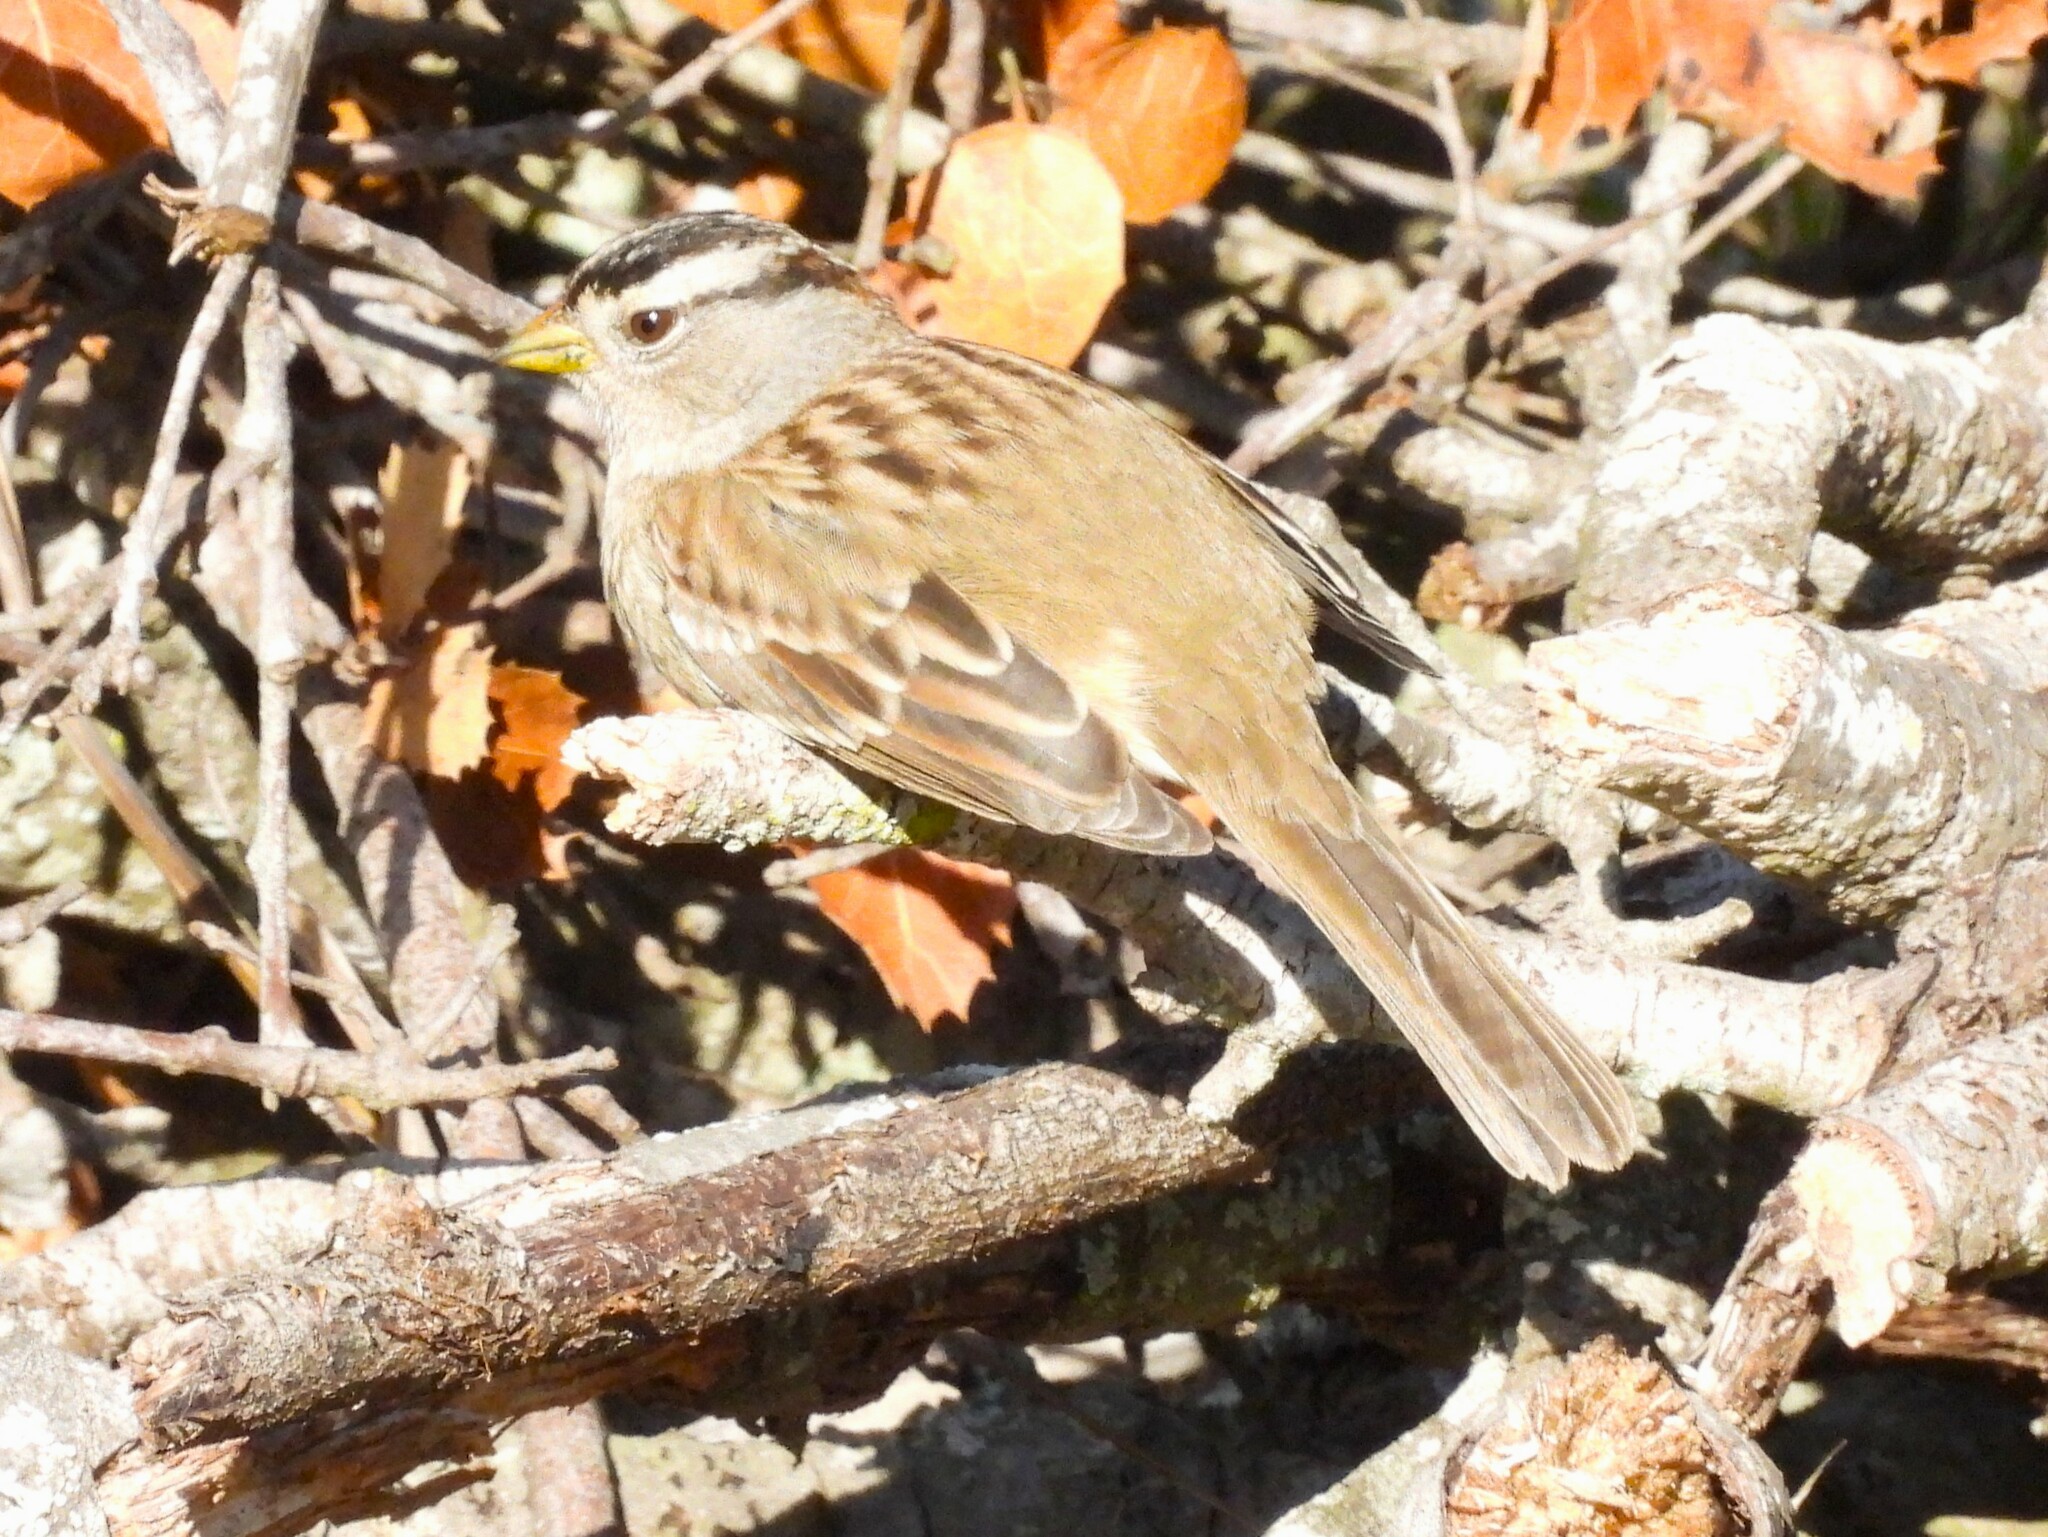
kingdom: Animalia
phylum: Chordata
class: Aves
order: Passeriformes
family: Passerellidae
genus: Zonotrichia
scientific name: Zonotrichia leucophrys
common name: White-crowned sparrow
